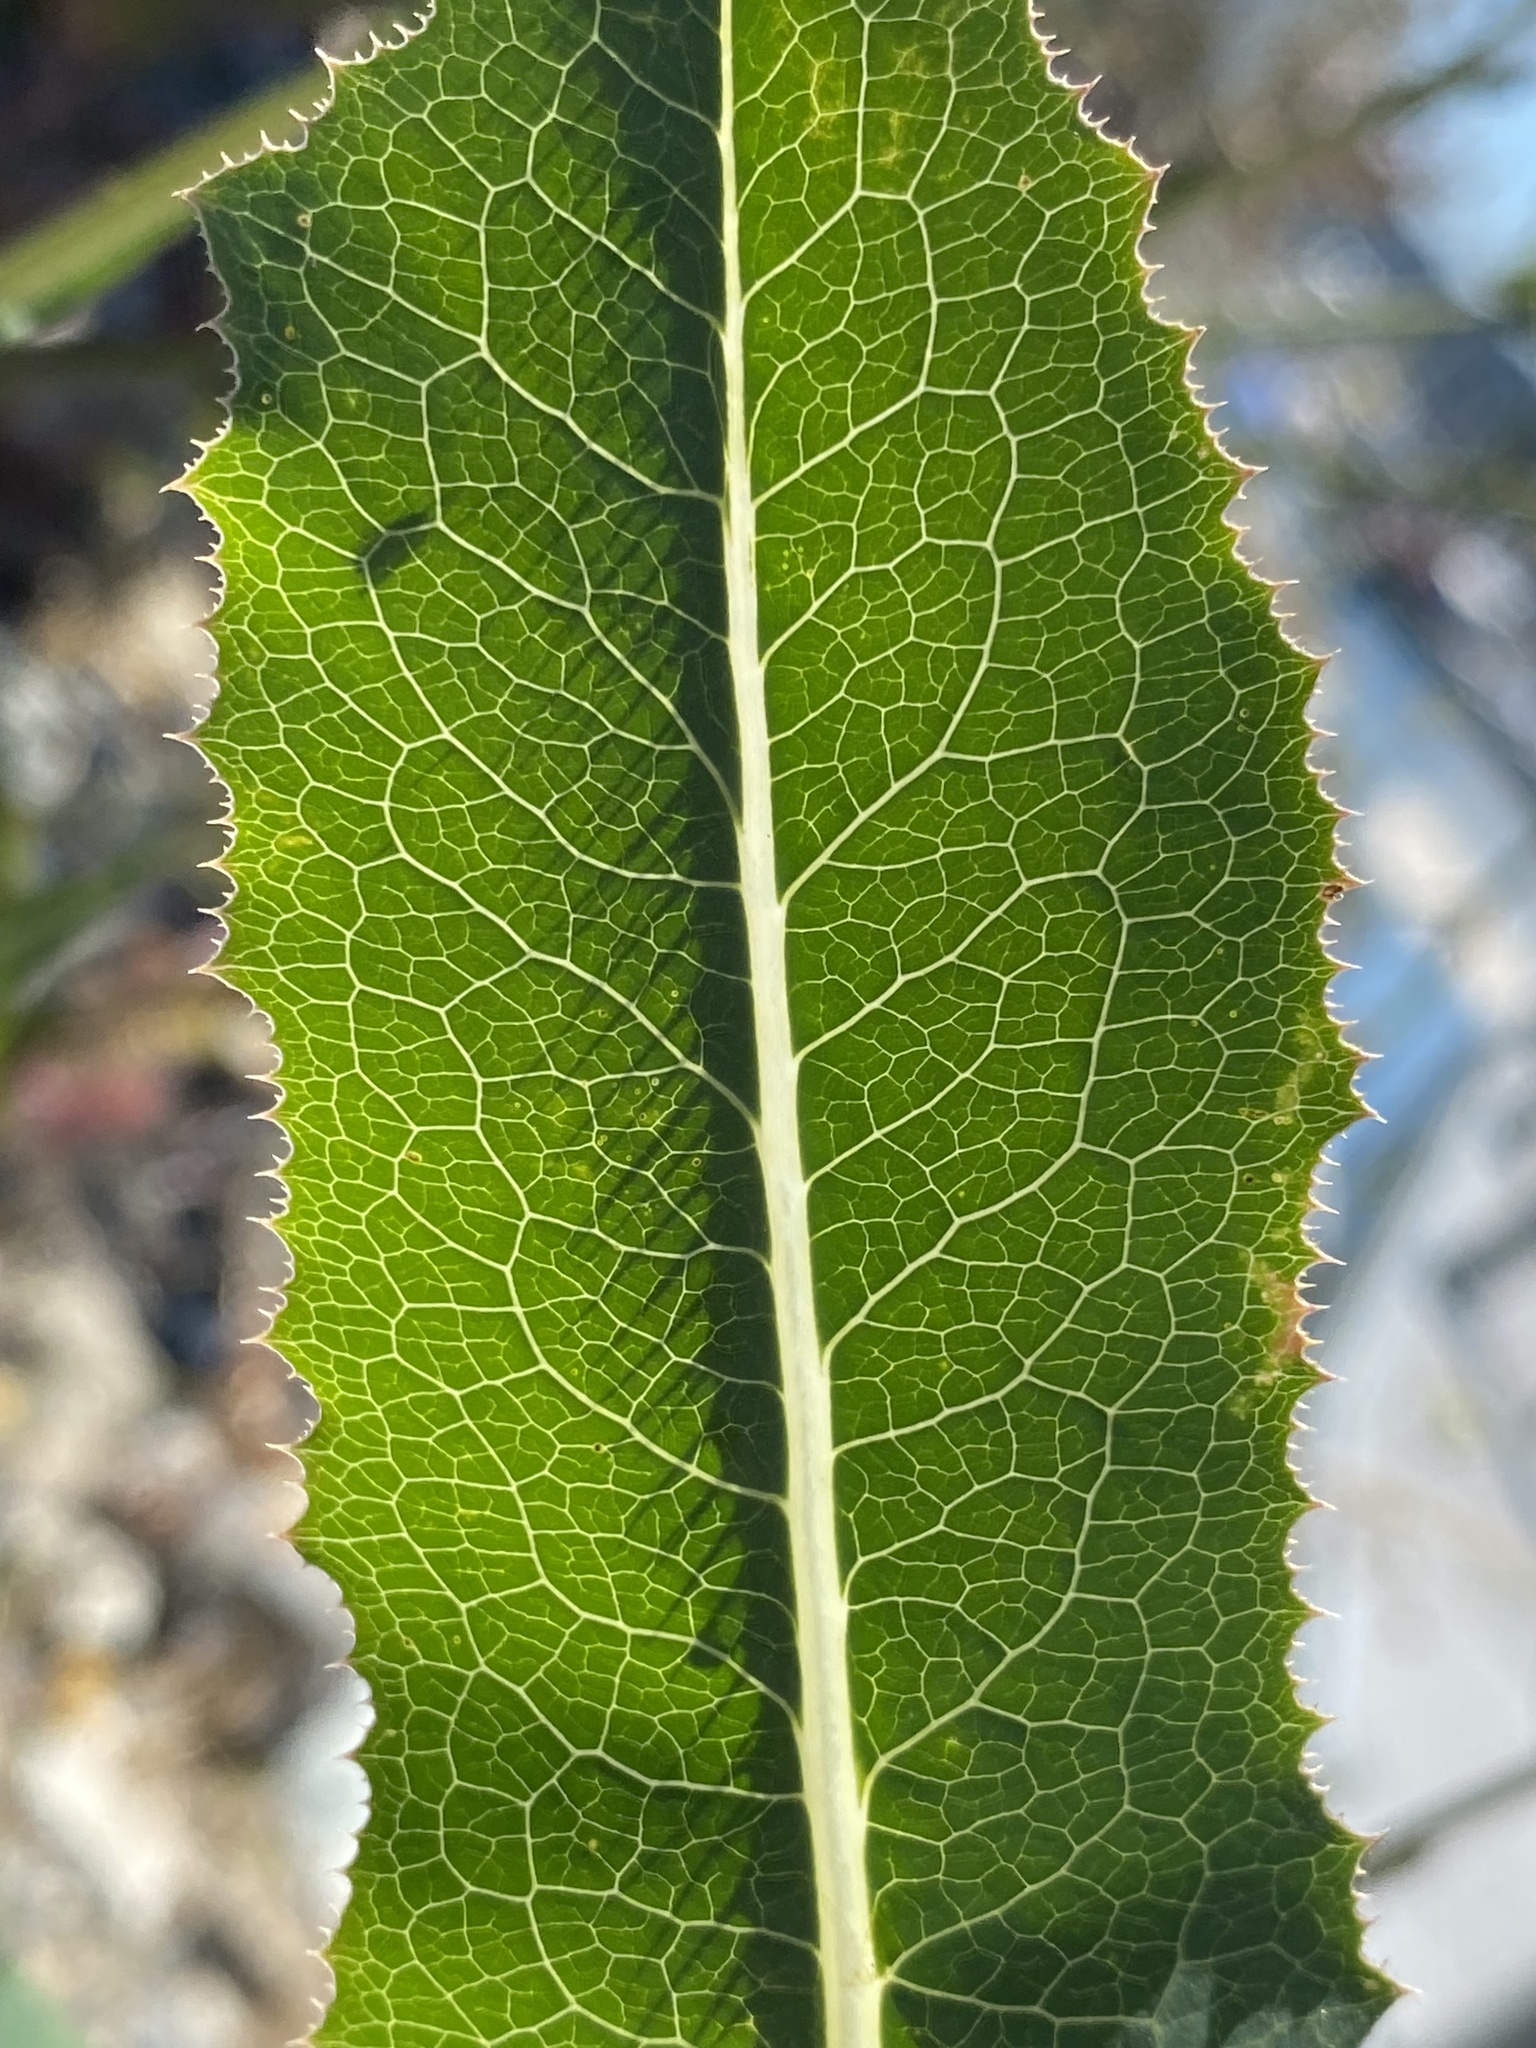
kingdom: Plantae
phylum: Tracheophyta
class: Magnoliopsida
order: Asterales
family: Asteraceae
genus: Lactuca
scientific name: Lactuca serriola
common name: Prickly lettuce
